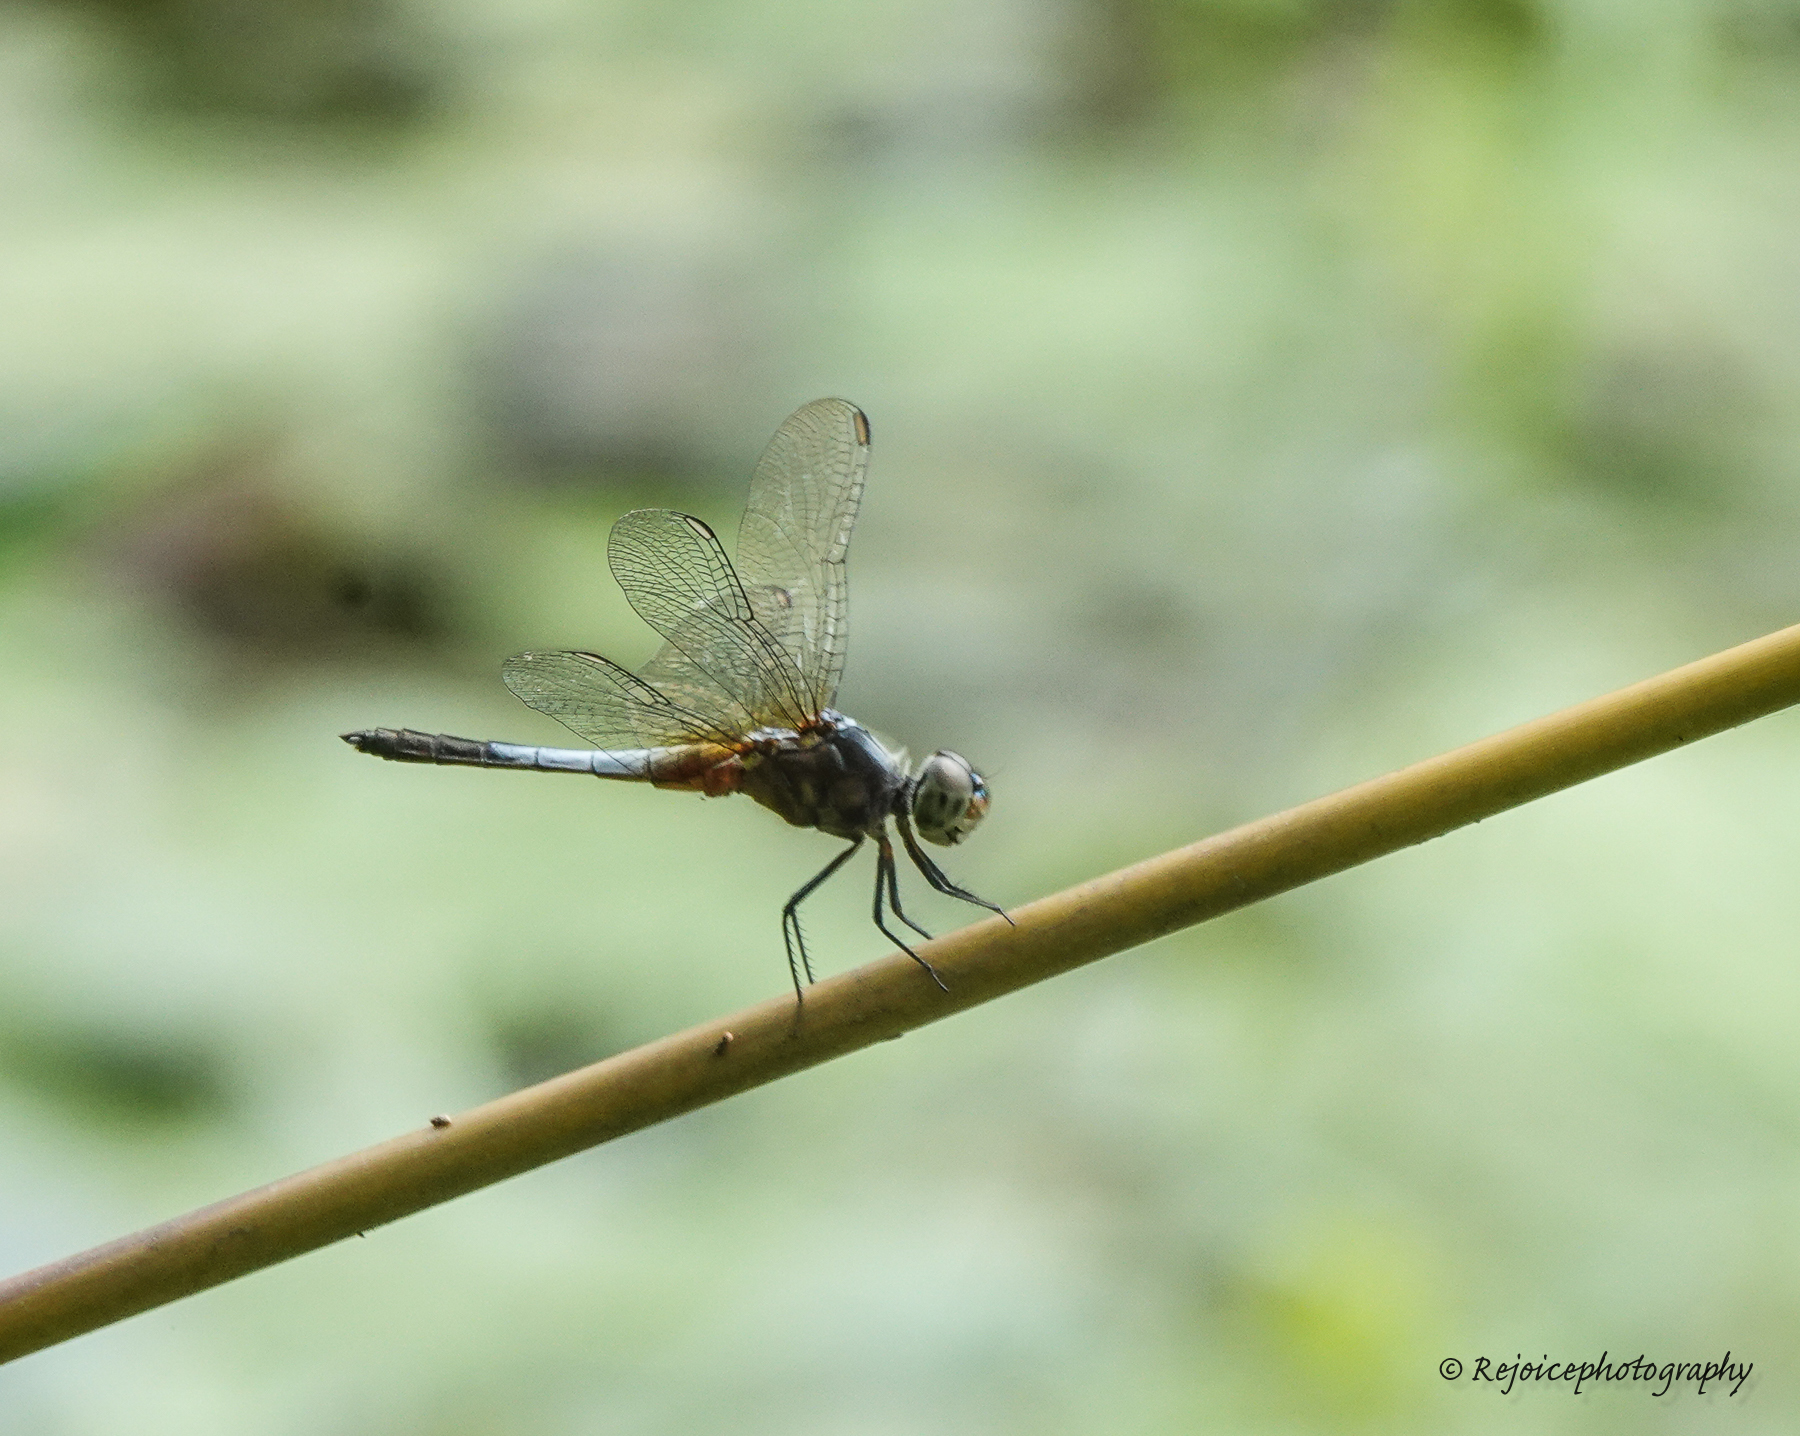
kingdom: Animalia
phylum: Arthropoda
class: Insecta
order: Odonata
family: Libellulidae
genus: Brachydiplax
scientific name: Brachydiplax chalybea
